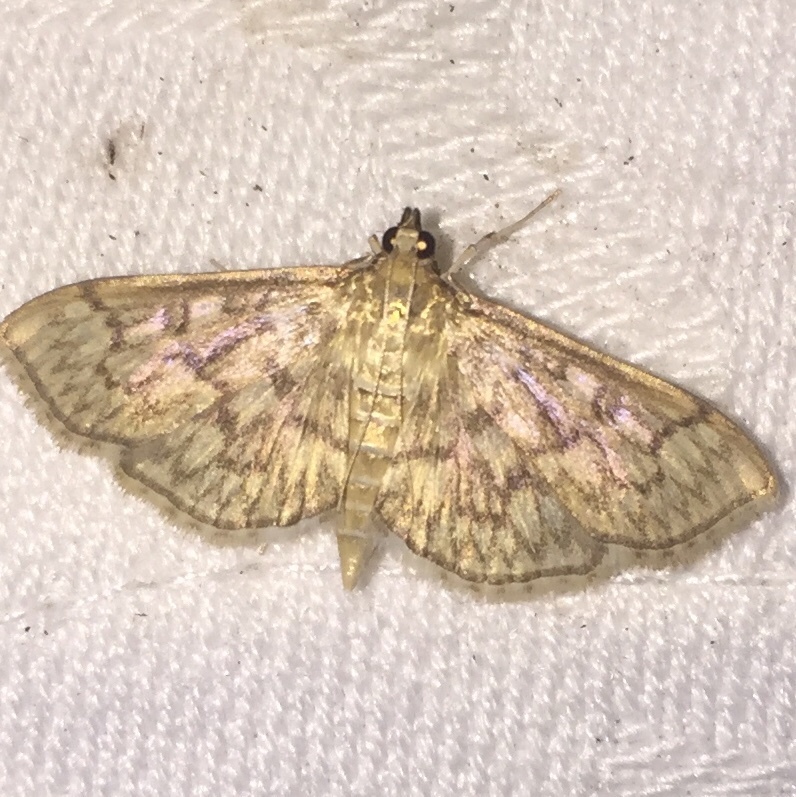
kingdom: Animalia
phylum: Arthropoda
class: Insecta
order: Lepidoptera
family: Crambidae
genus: Herpetogramma
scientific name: Herpetogramma pertextalis
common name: Bold-feathered grass moth
